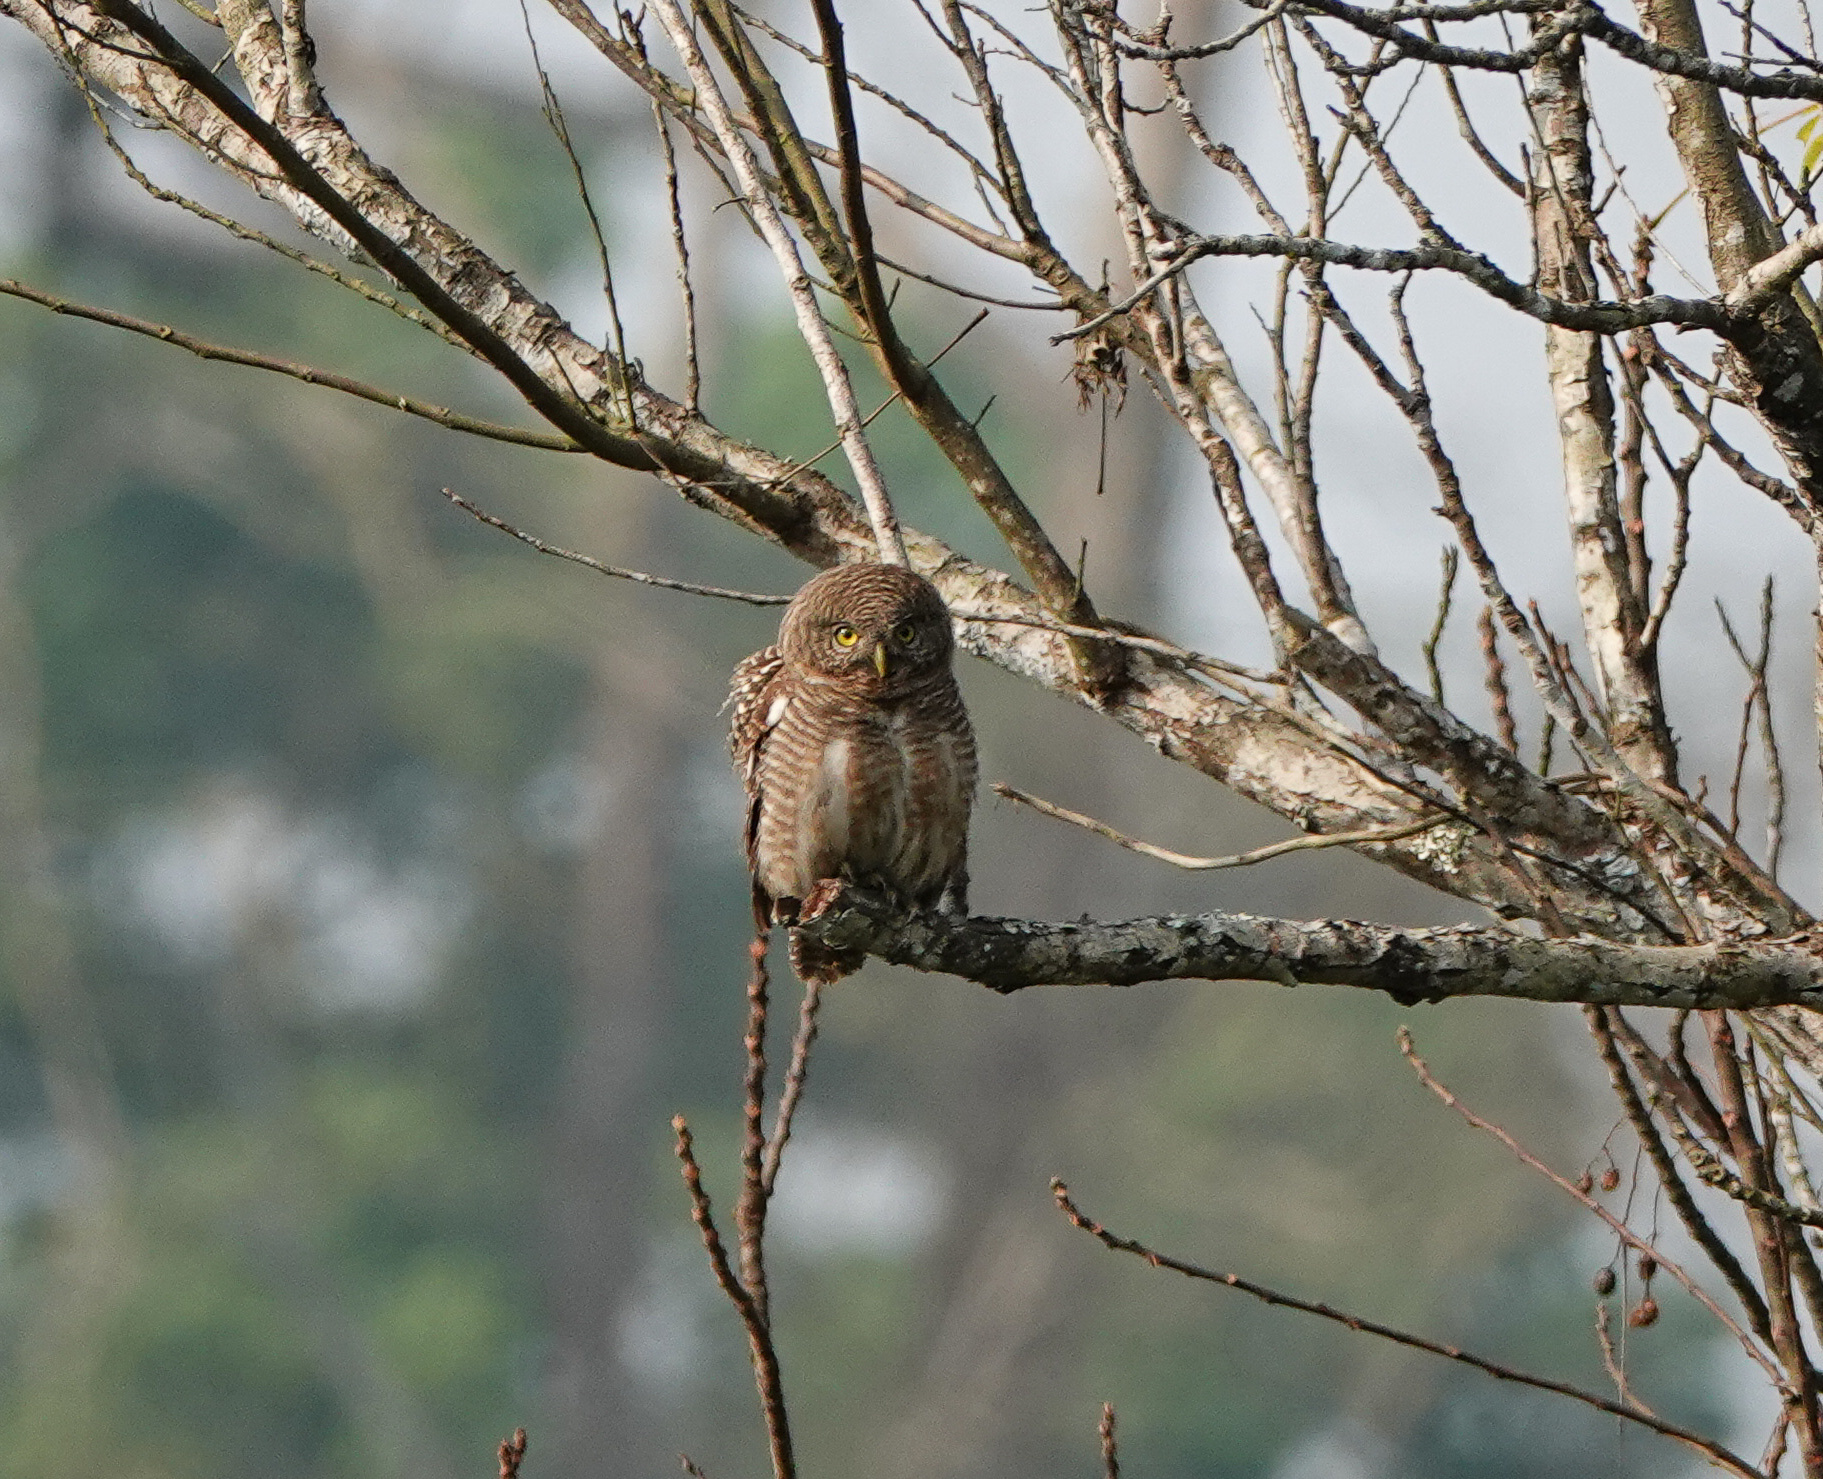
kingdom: Animalia
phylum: Chordata
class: Aves
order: Strigiformes
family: Strigidae
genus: Glaucidium
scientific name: Glaucidium cuculoides
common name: Asian barred owlet
